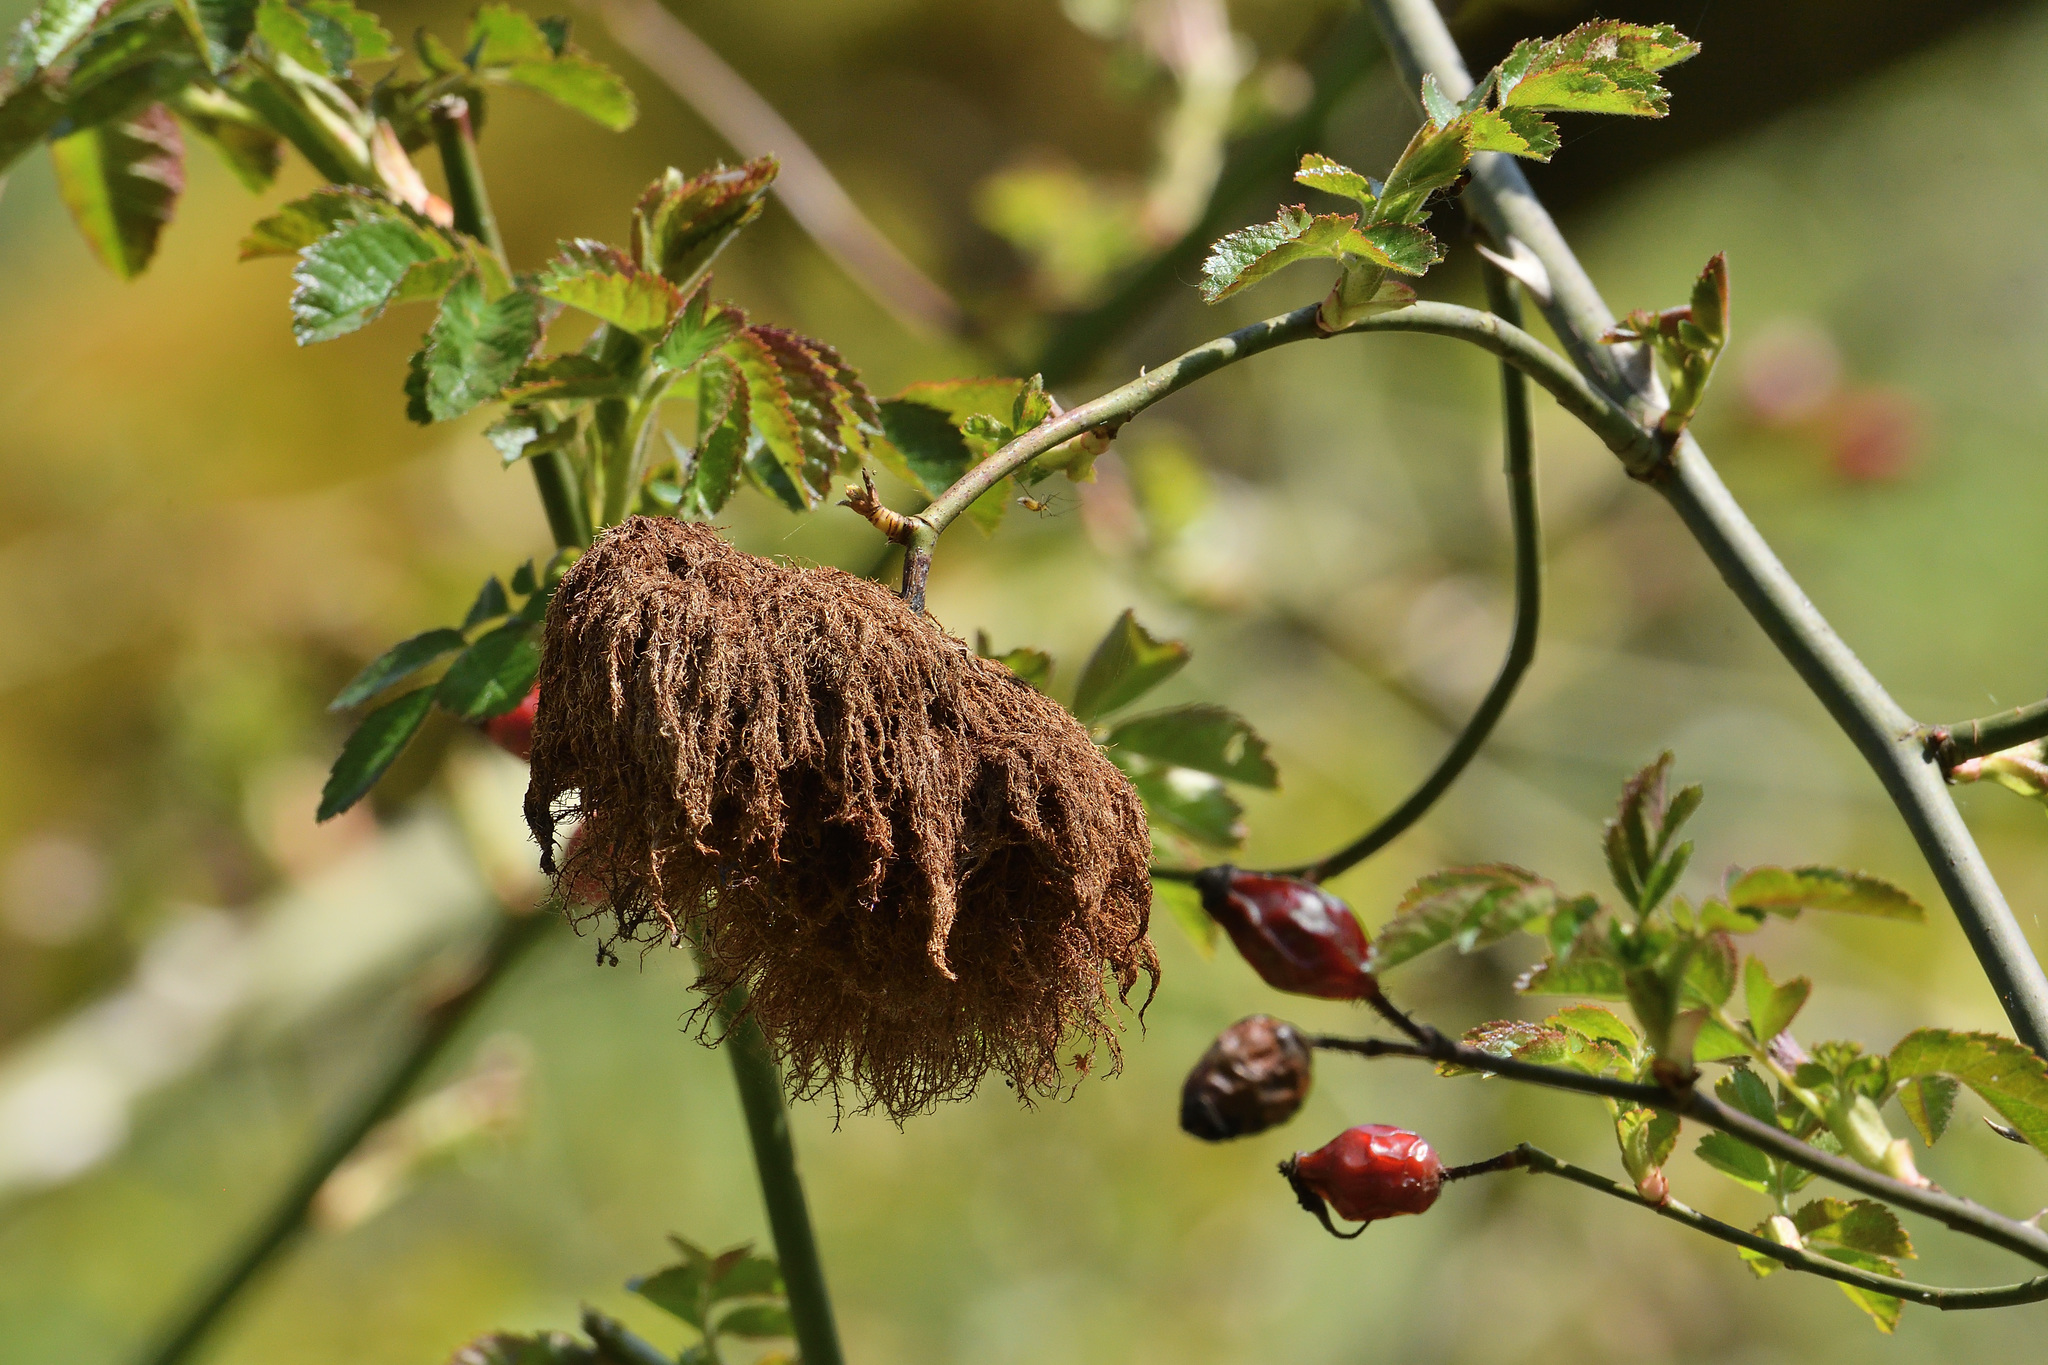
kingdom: Animalia
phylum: Arthropoda
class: Insecta
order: Hymenoptera
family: Cynipidae
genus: Diplolepis
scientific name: Diplolepis rosae
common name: Bedeguar gall
